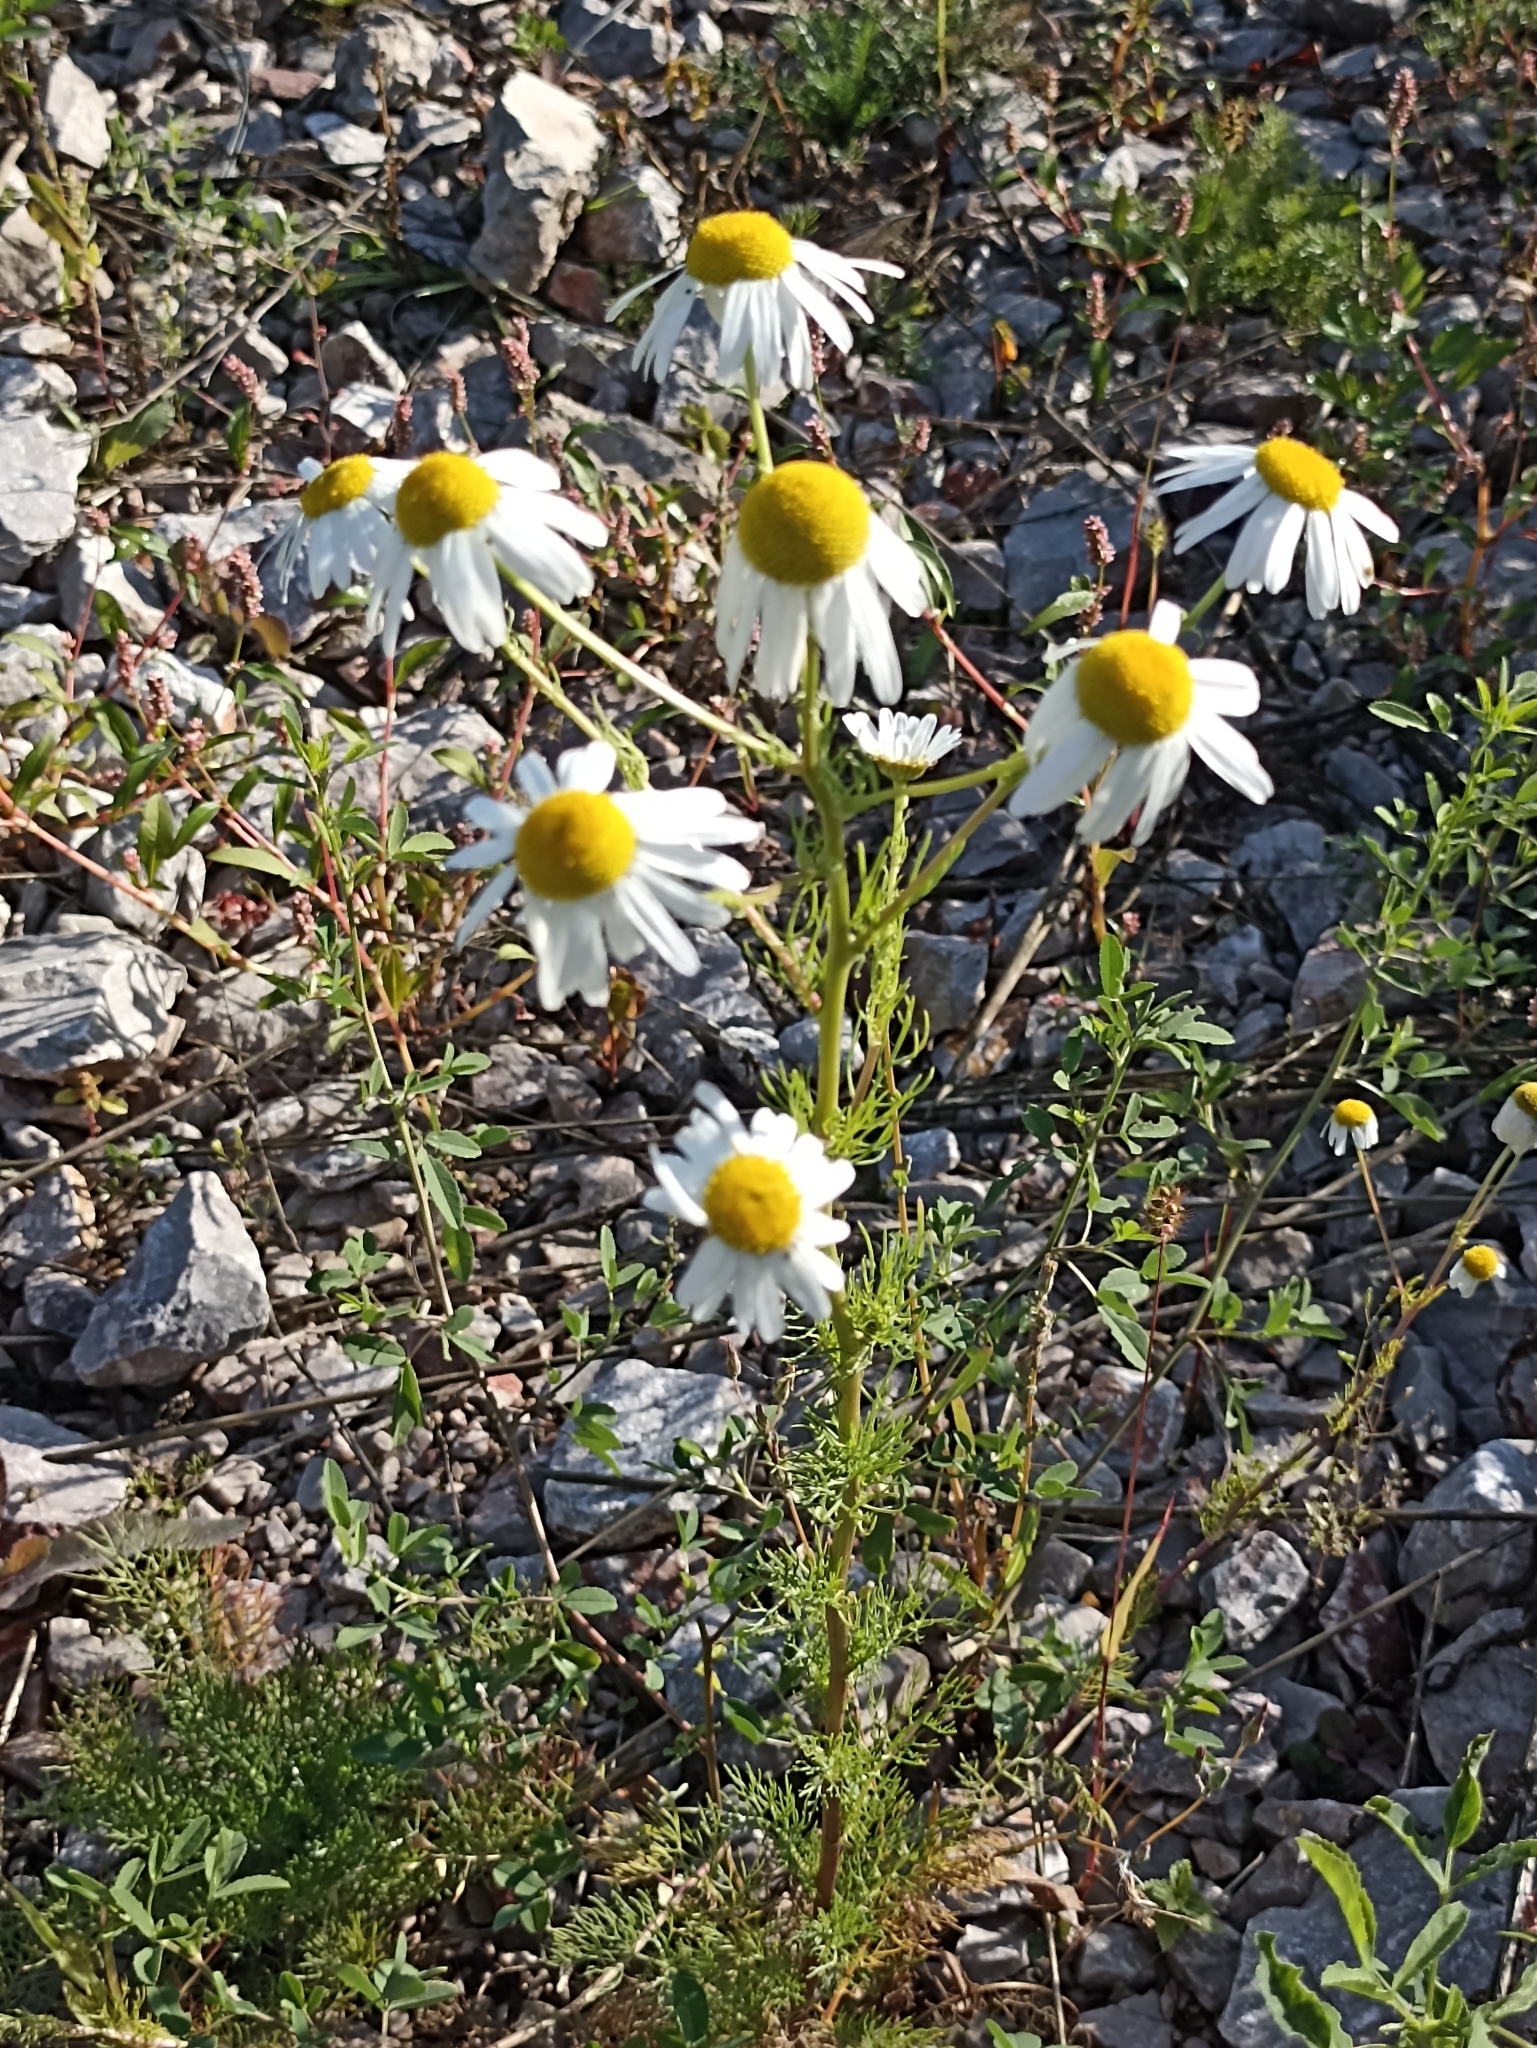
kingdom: Plantae
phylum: Tracheophyta
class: Magnoliopsida
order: Asterales
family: Asteraceae
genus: Tripleurospermum
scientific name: Tripleurospermum inodorum
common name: Scentless mayweed
